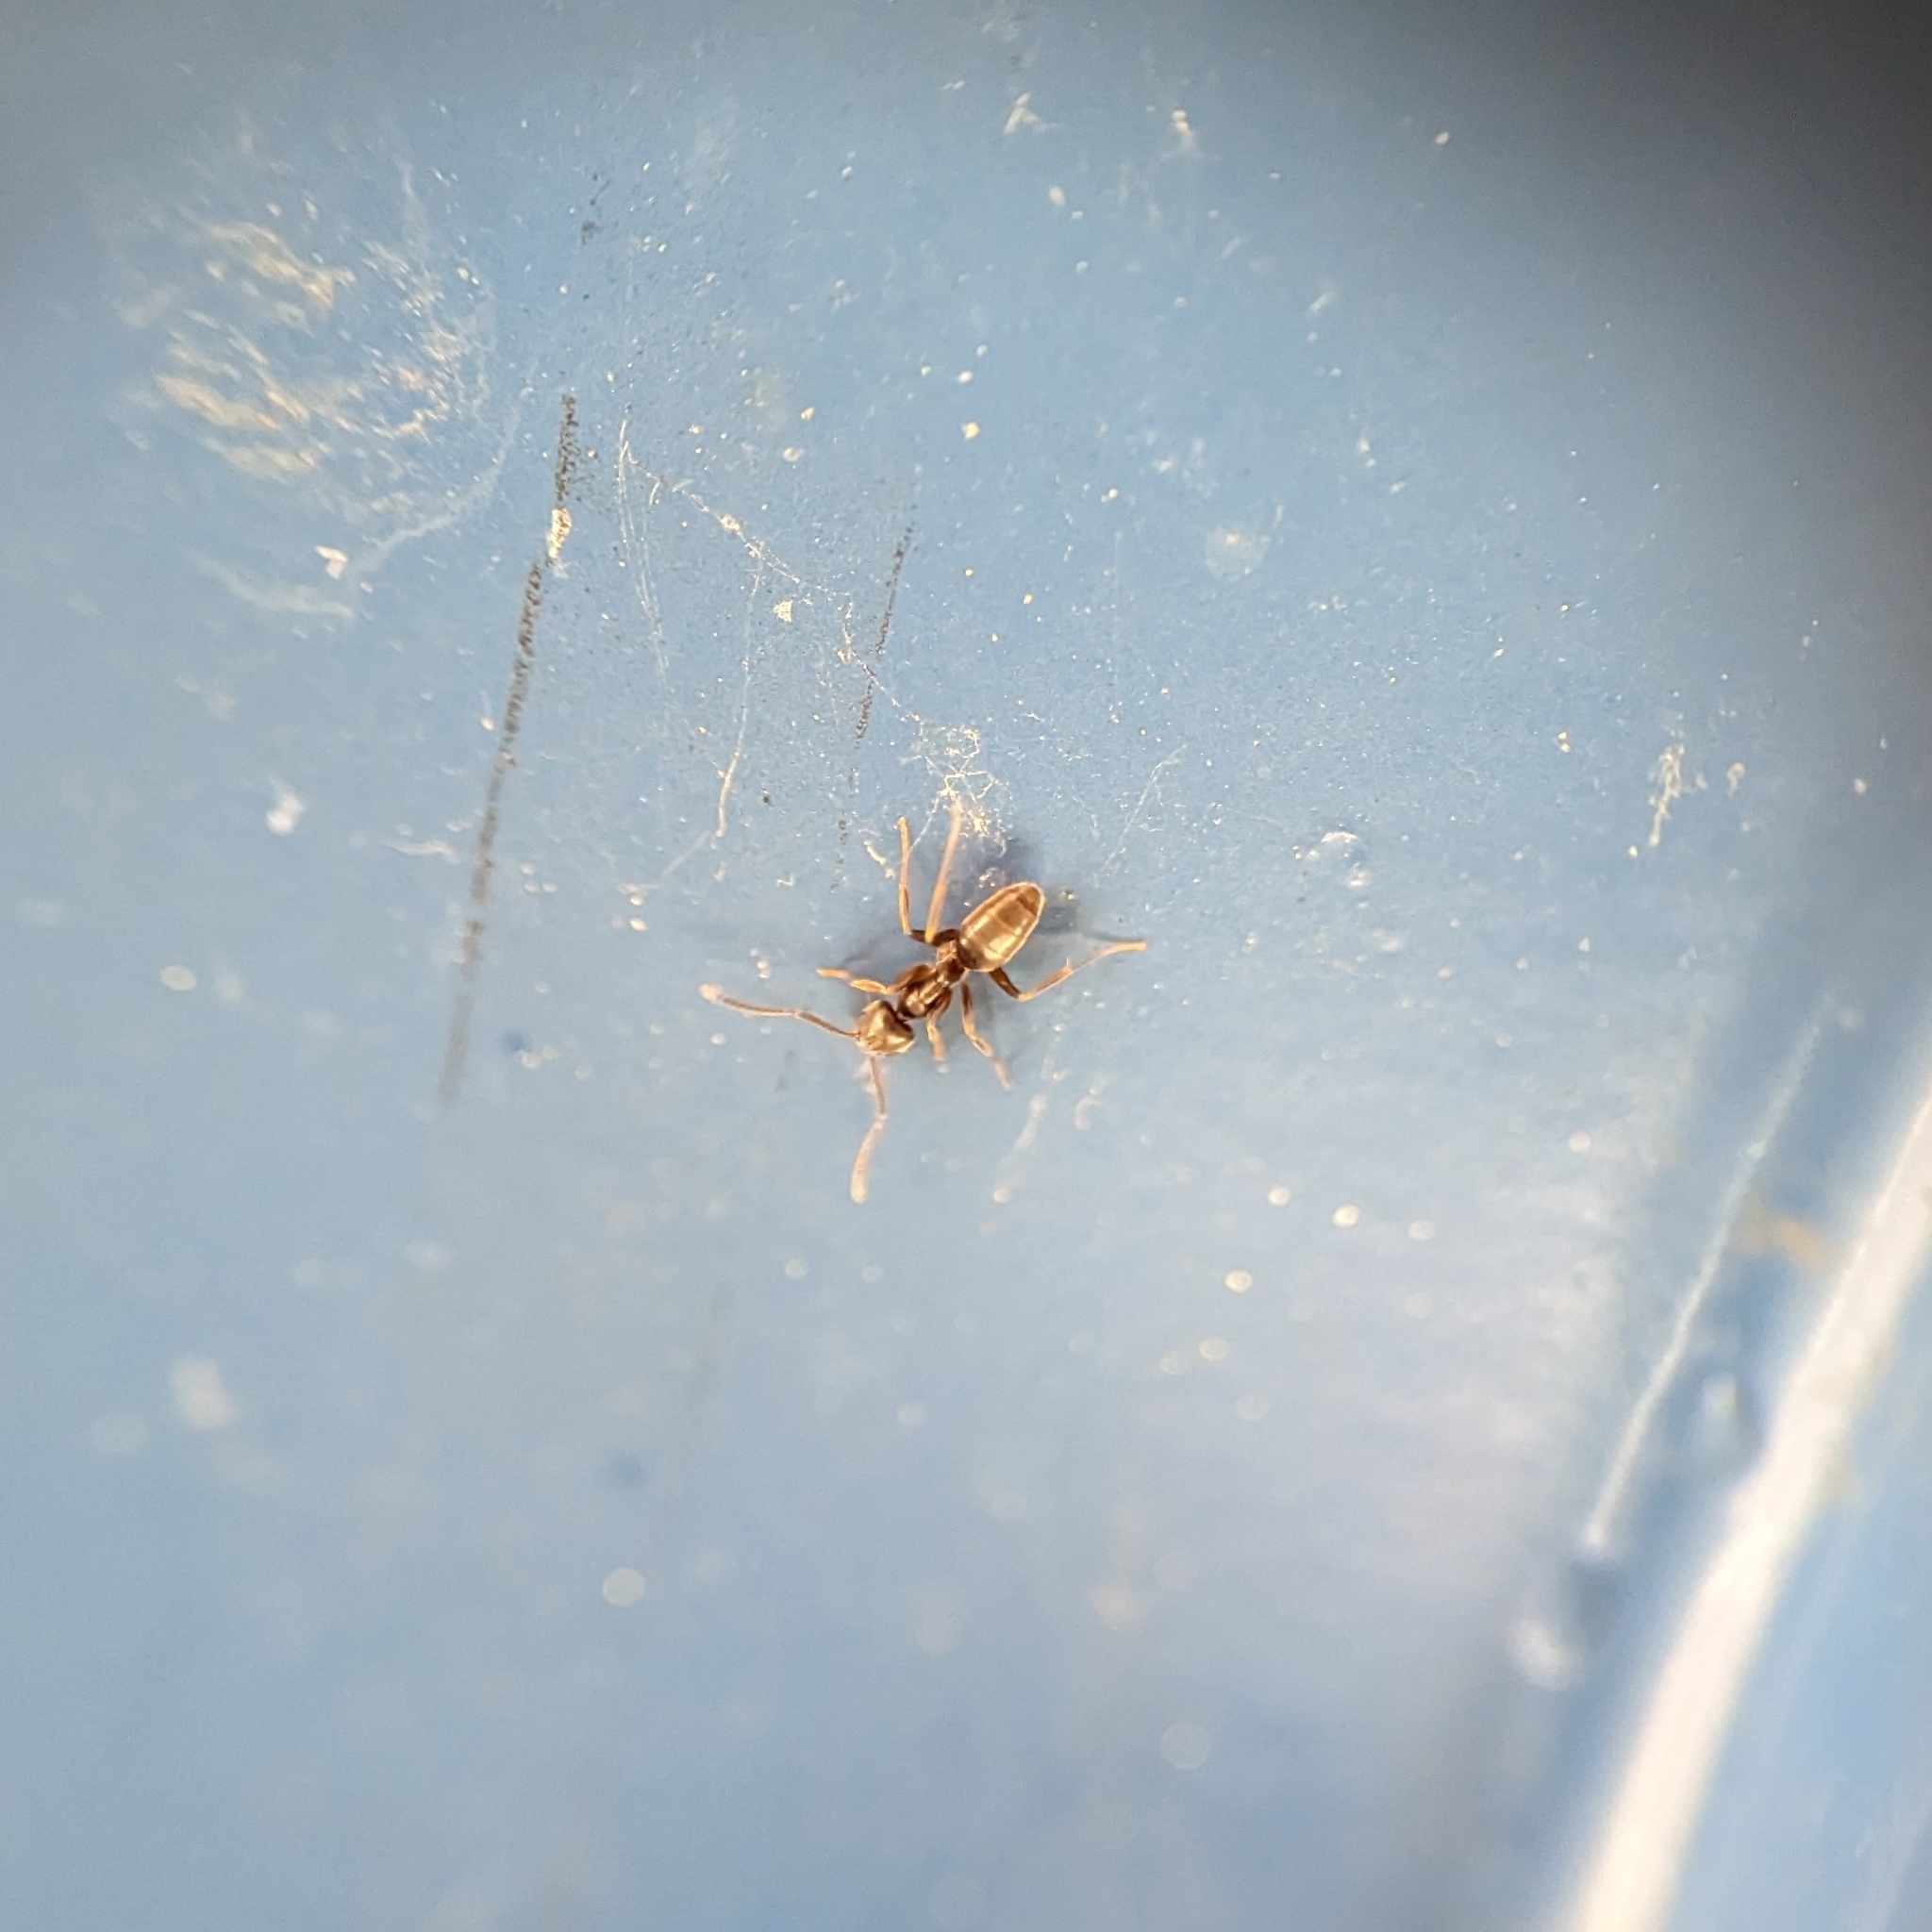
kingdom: Animalia
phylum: Arthropoda
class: Insecta
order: Hymenoptera
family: Formicidae
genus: Tapinoma
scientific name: Tapinoma sessile
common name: Odorous house ant
